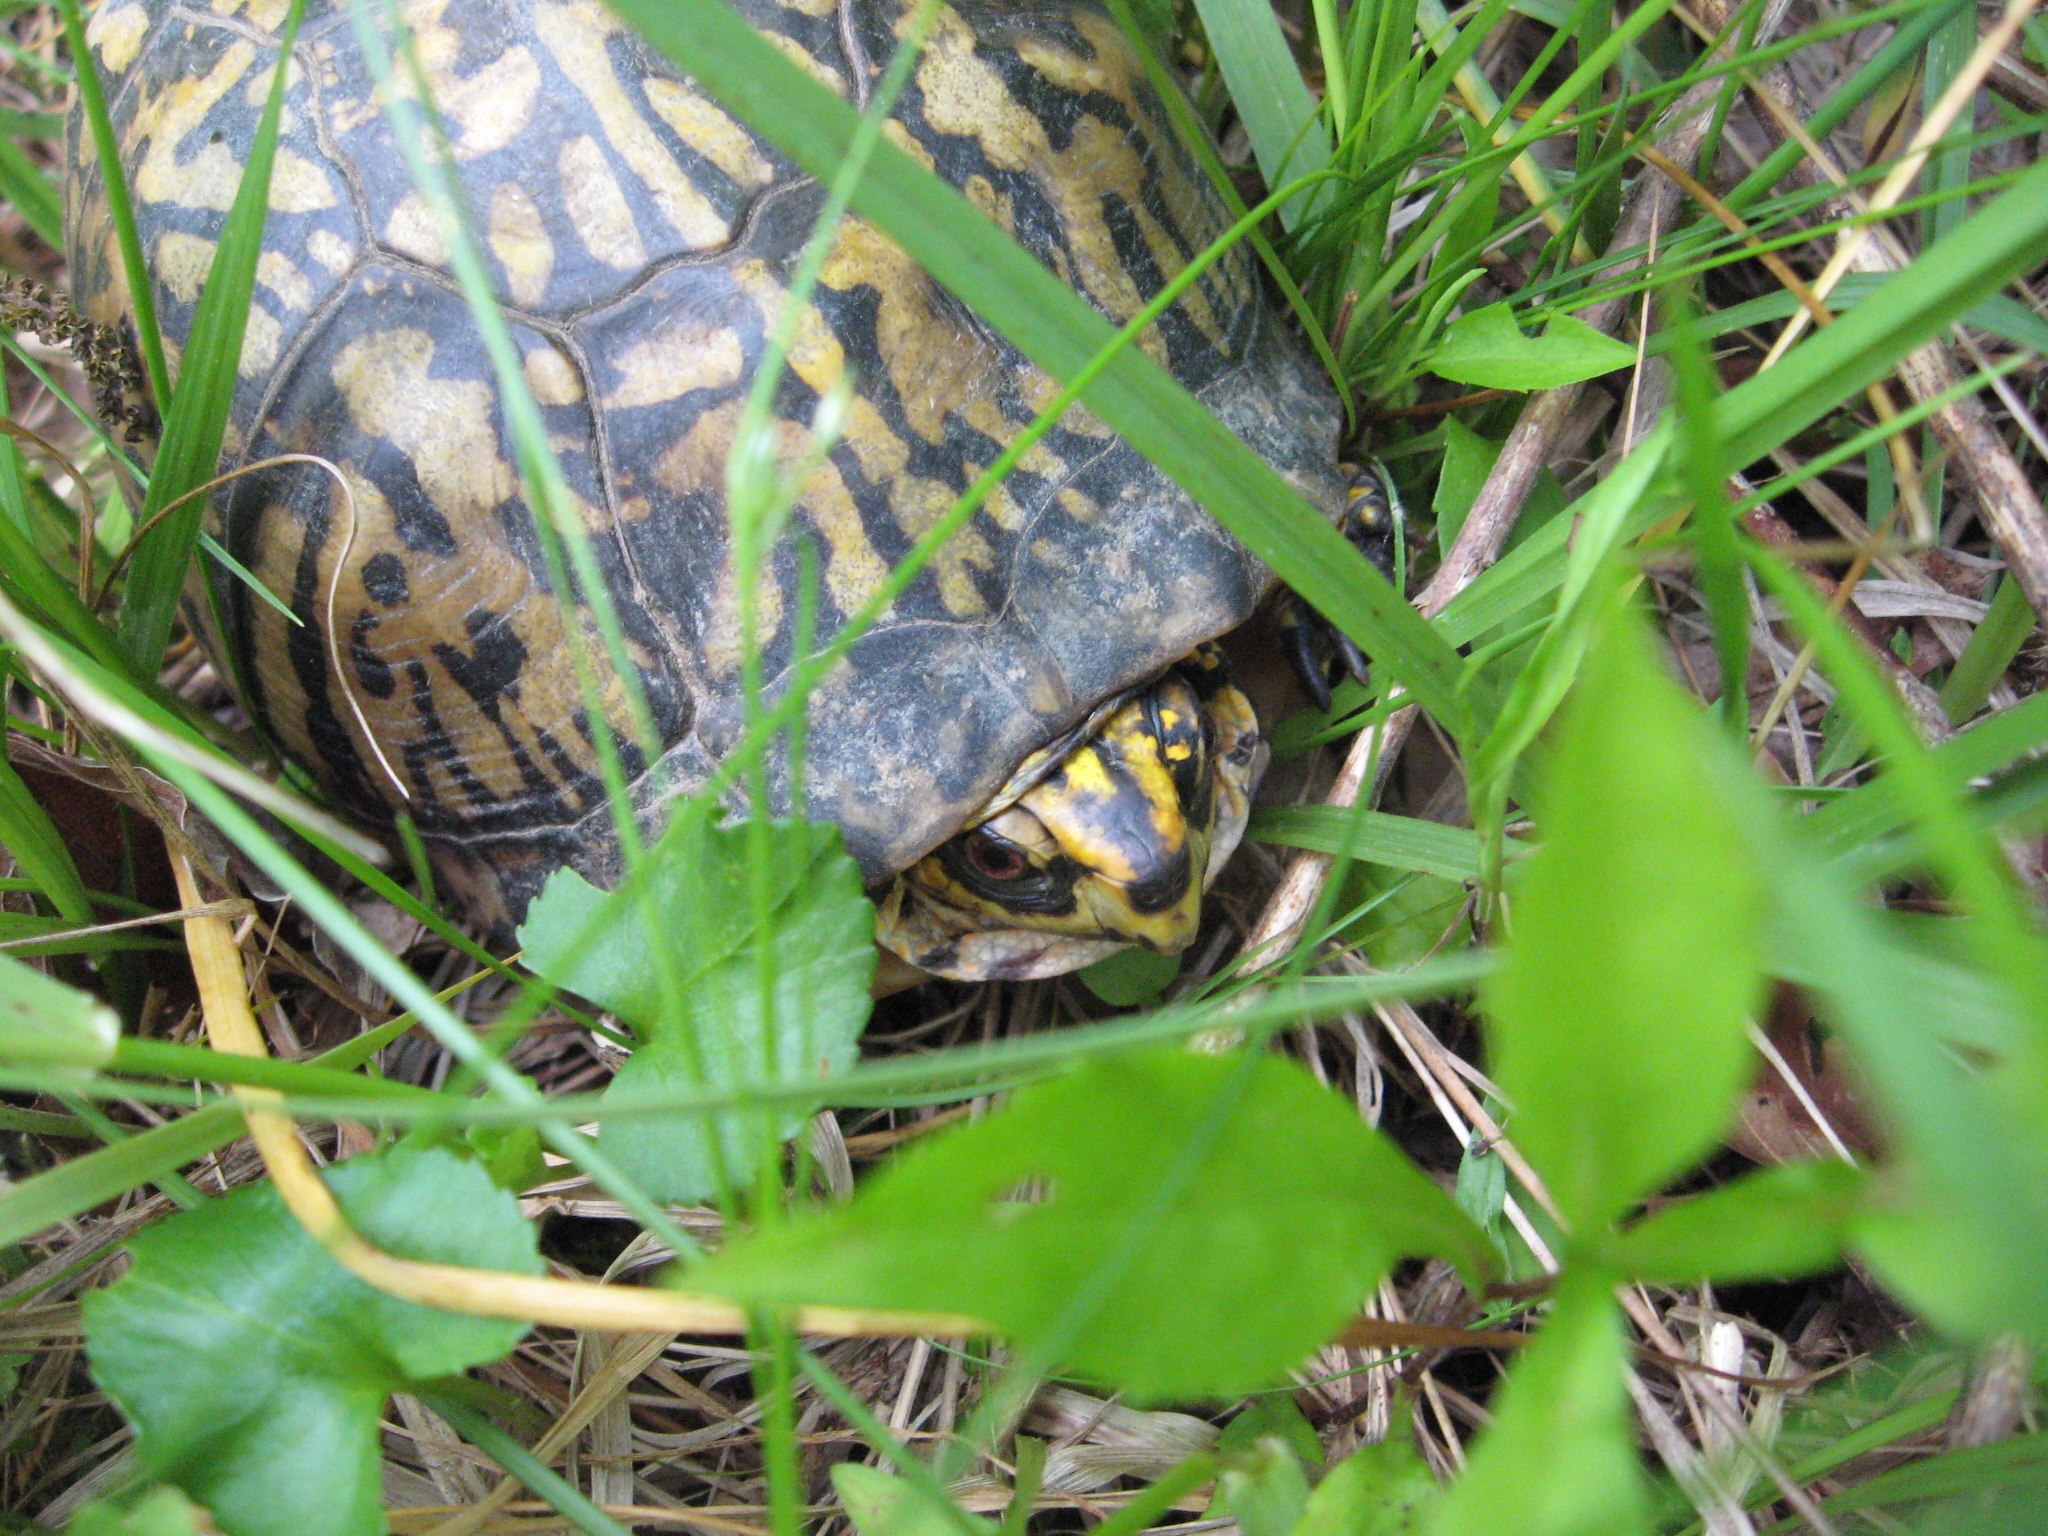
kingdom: Animalia
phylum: Chordata
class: Testudines
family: Emydidae
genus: Terrapene
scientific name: Terrapene carolina
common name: Common box turtle
